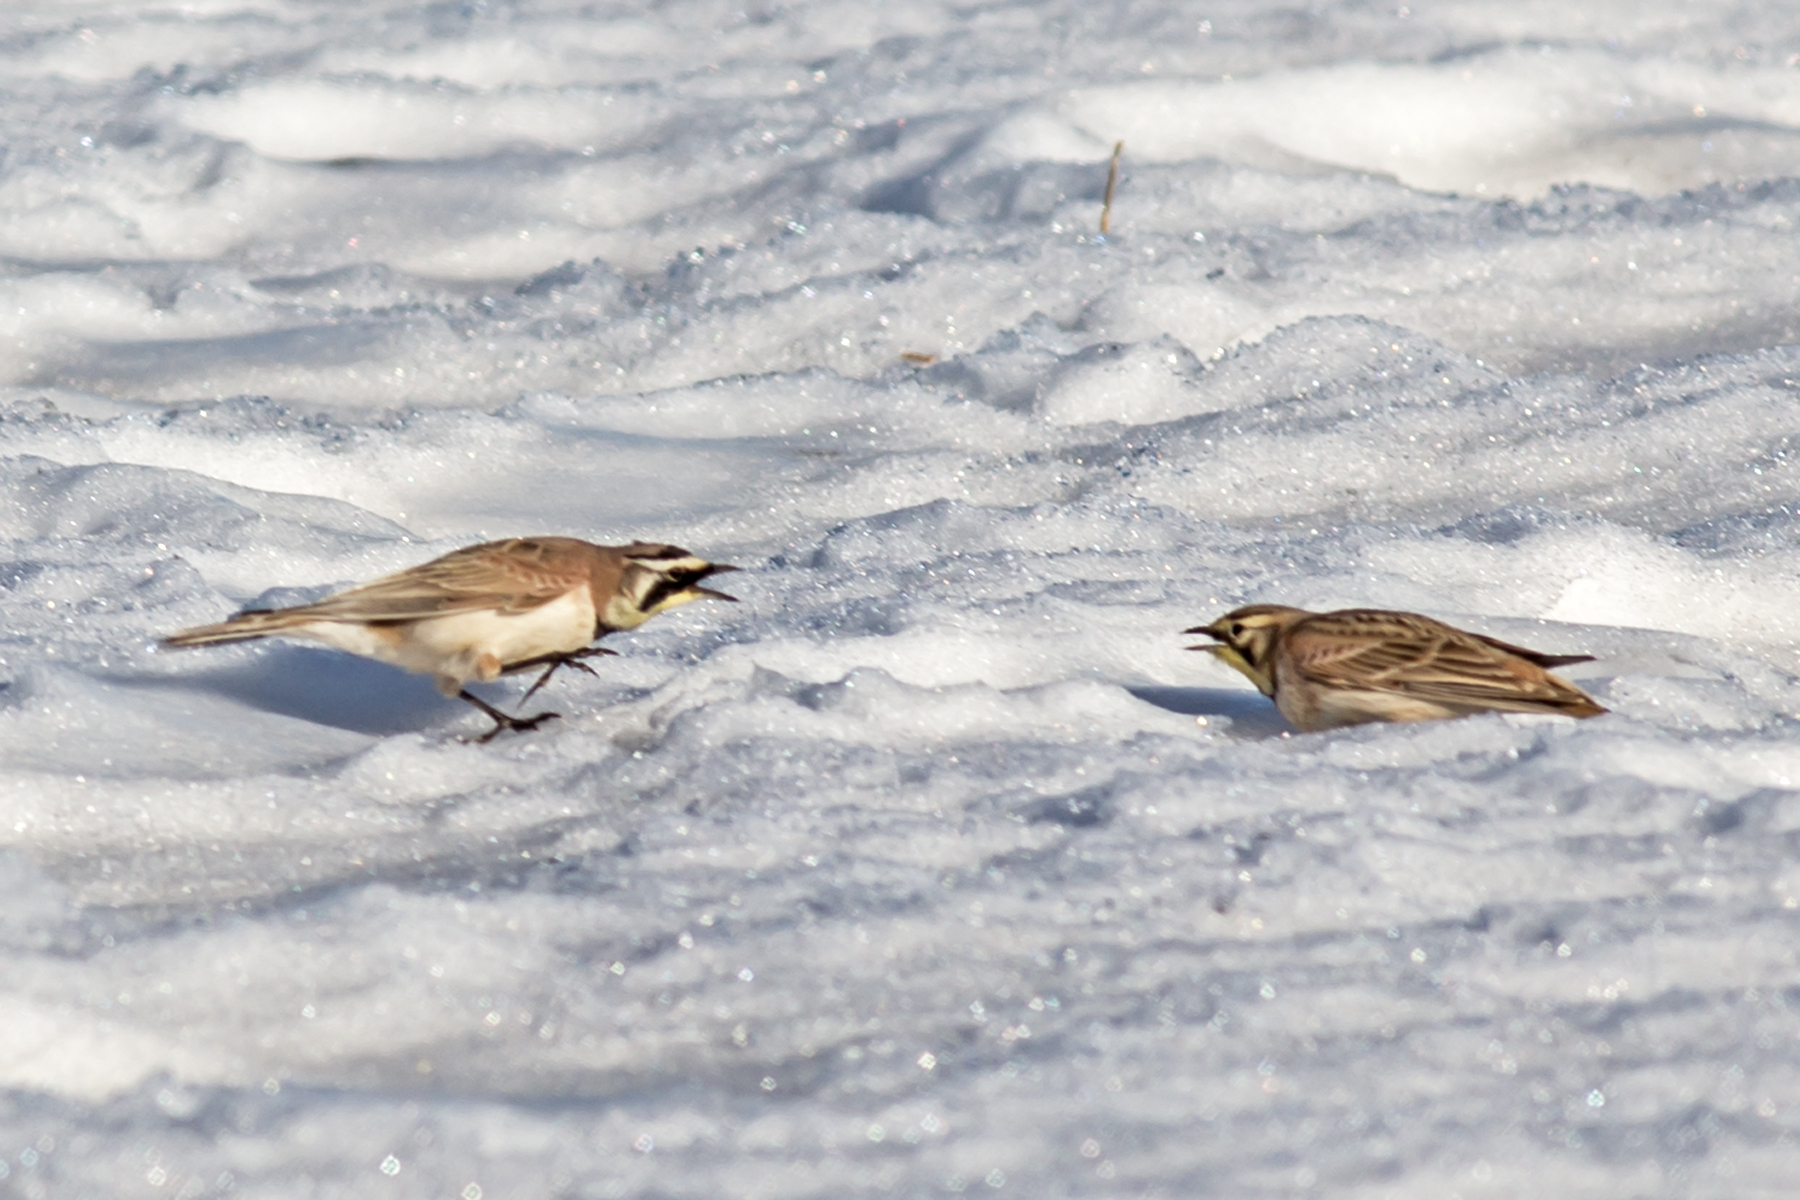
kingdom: Animalia
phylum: Chordata
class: Aves
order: Passeriformes
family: Alaudidae
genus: Eremophila
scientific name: Eremophila alpestris
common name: Horned lark
